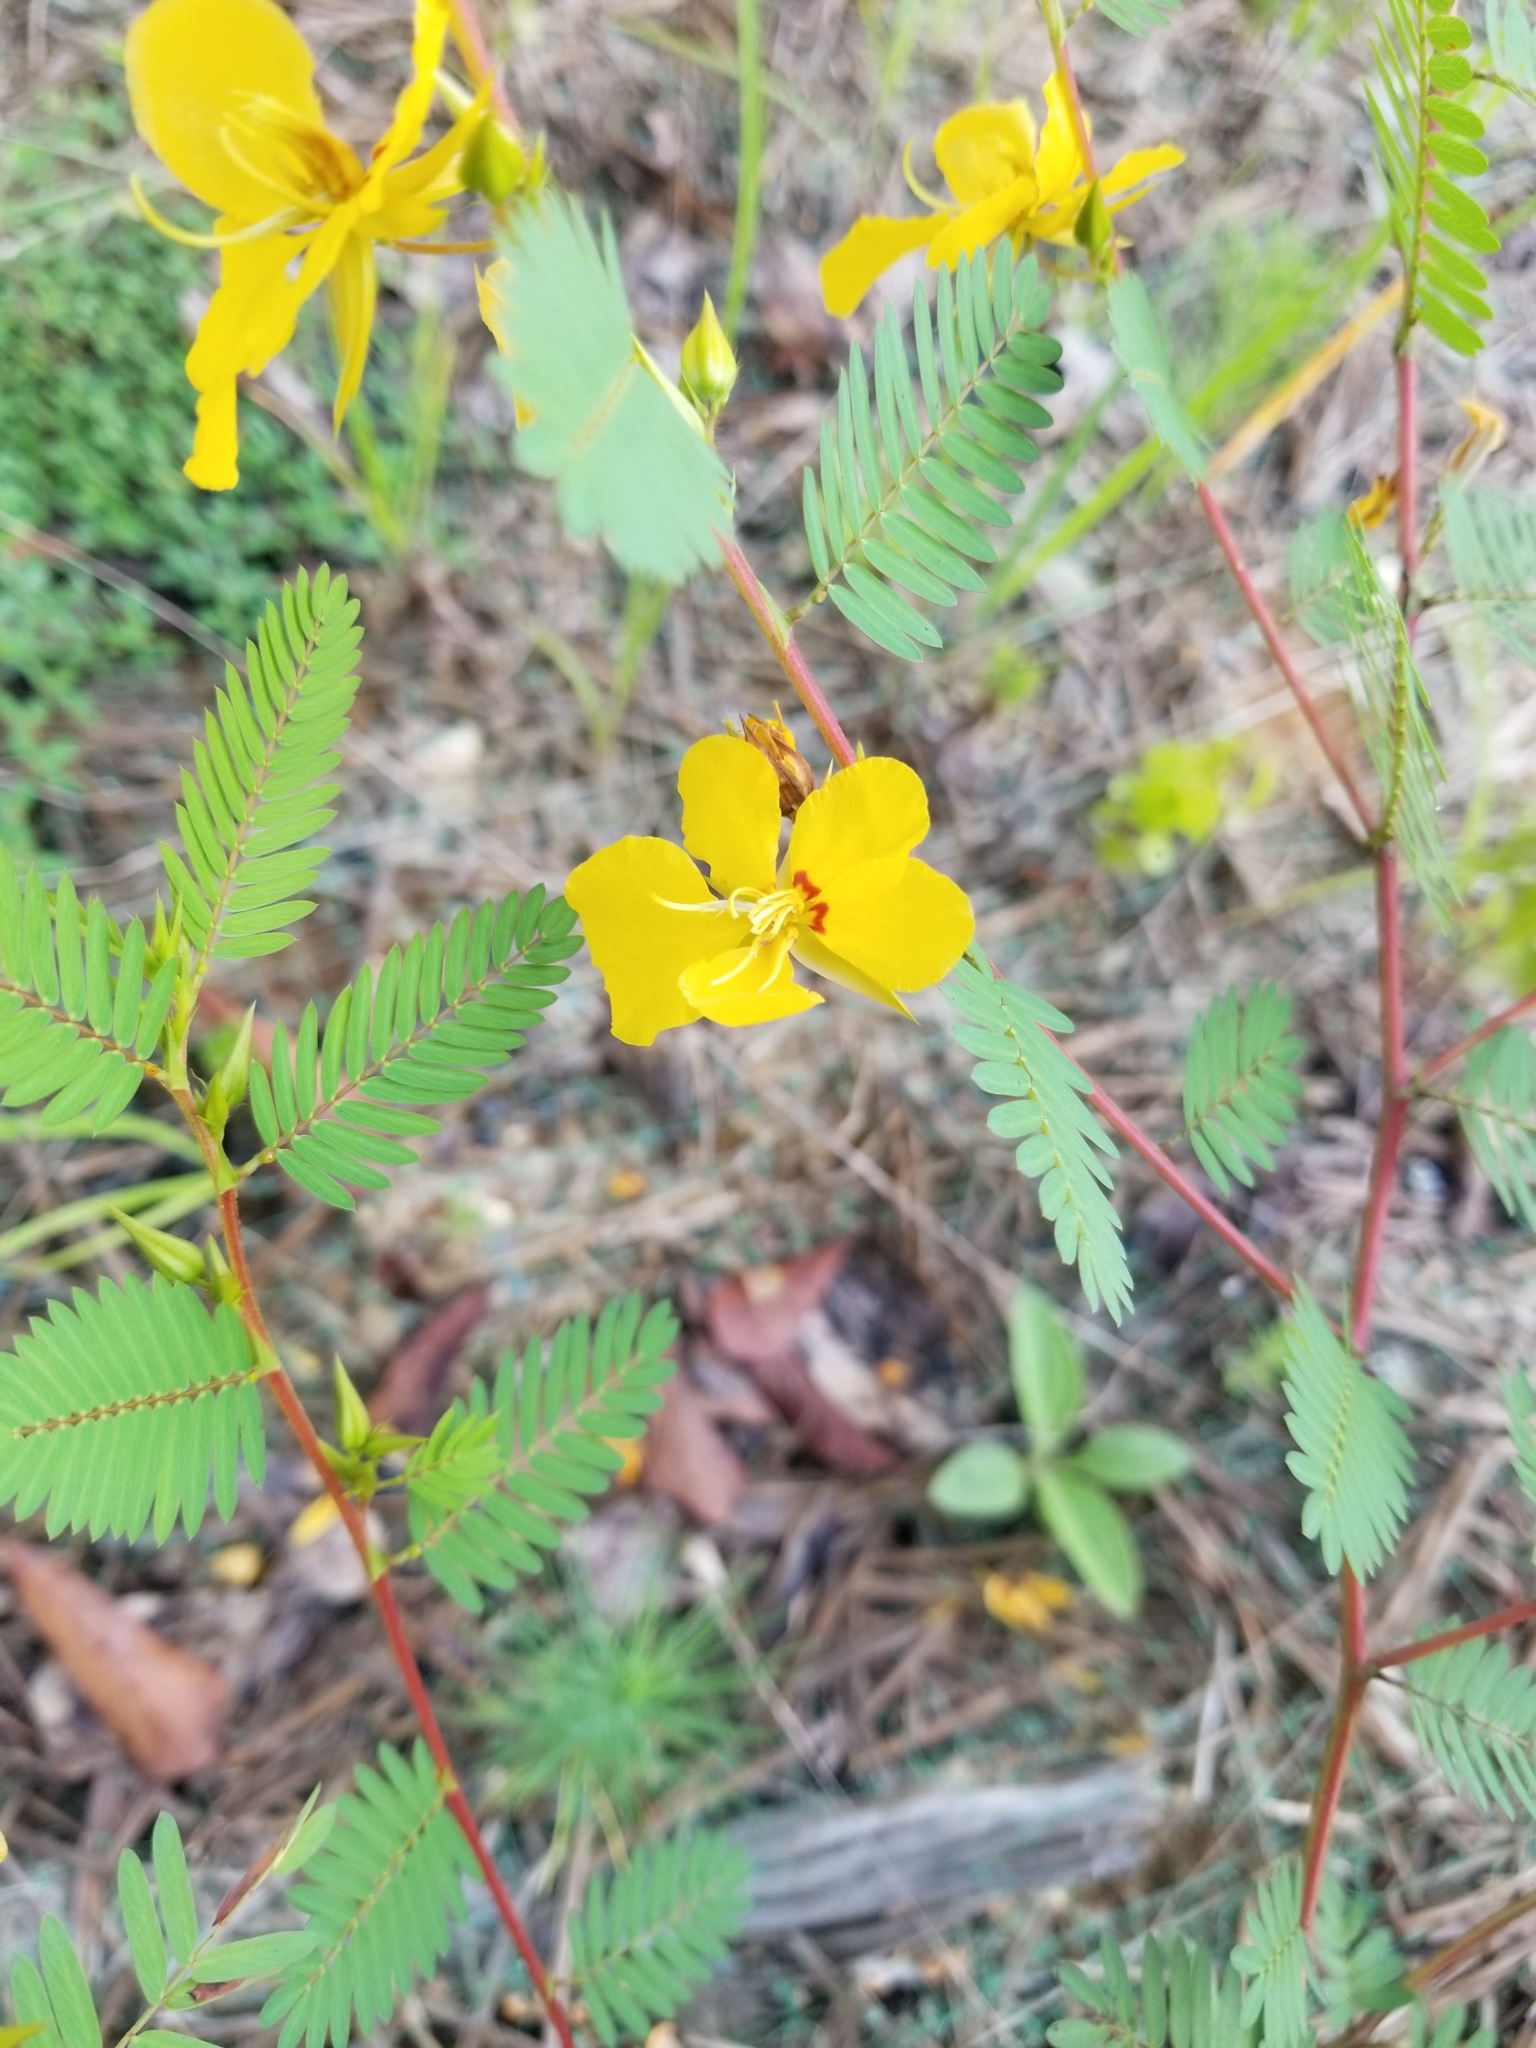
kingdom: Plantae
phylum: Tracheophyta
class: Magnoliopsida
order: Fabales
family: Fabaceae
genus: Chamaecrista
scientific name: Chamaecrista fasciculata
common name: Golden cassia
